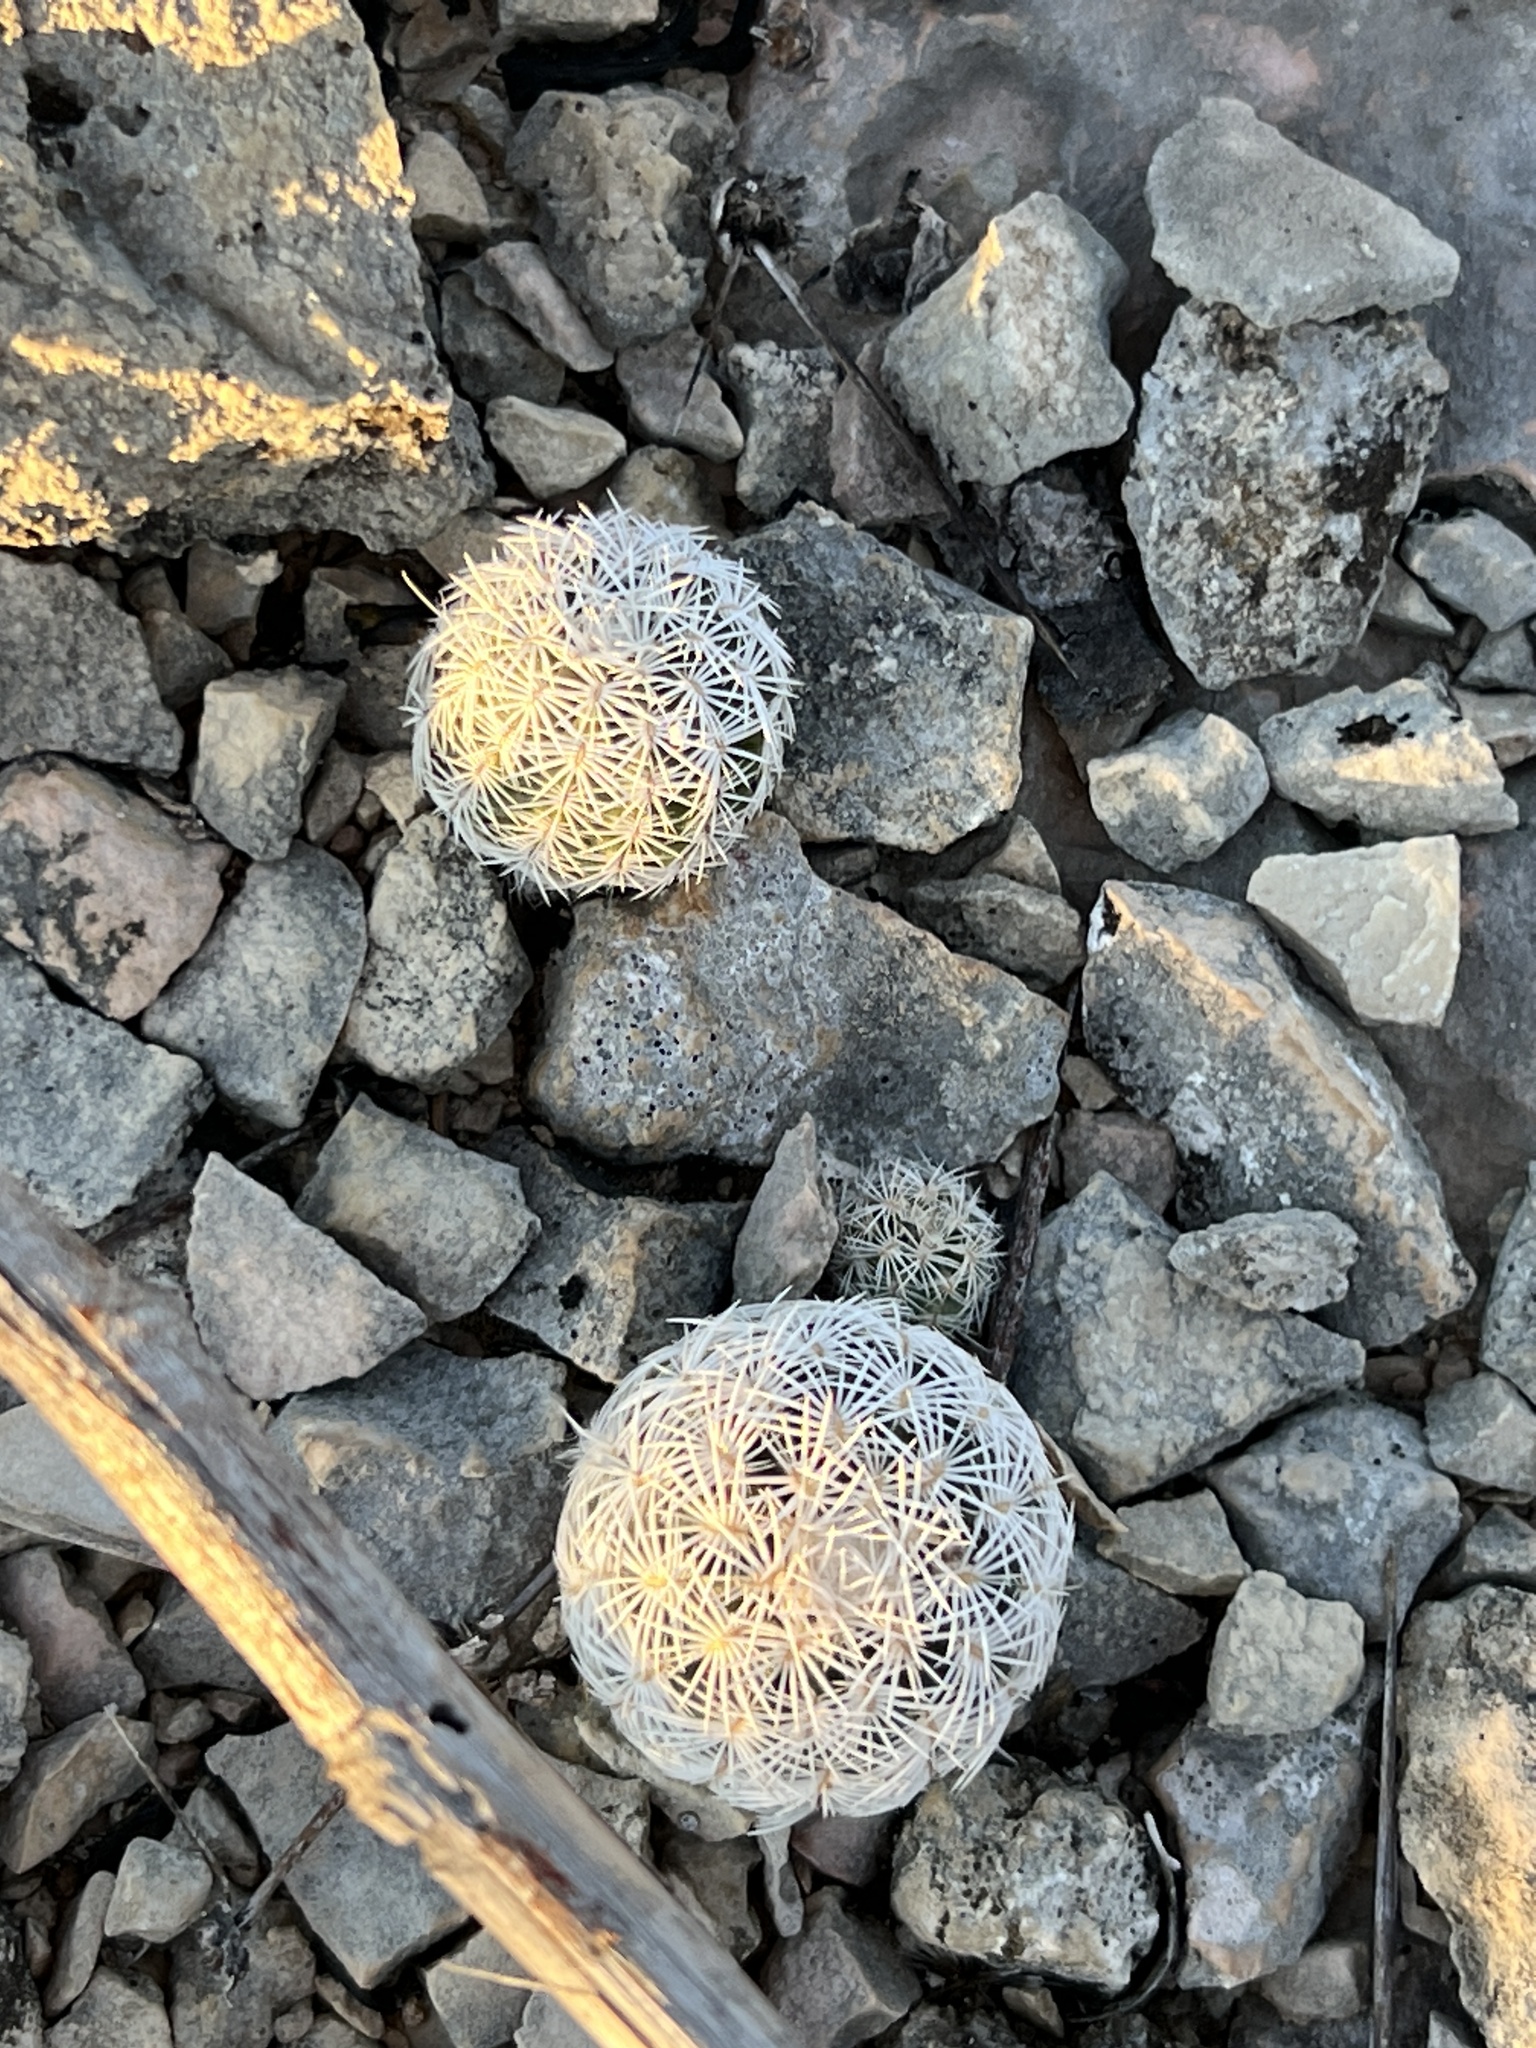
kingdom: Plantae
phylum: Tracheophyta
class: Magnoliopsida
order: Caryophyllales
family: Cactaceae
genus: Echinocereus
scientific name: Echinocereus reichenbachii
